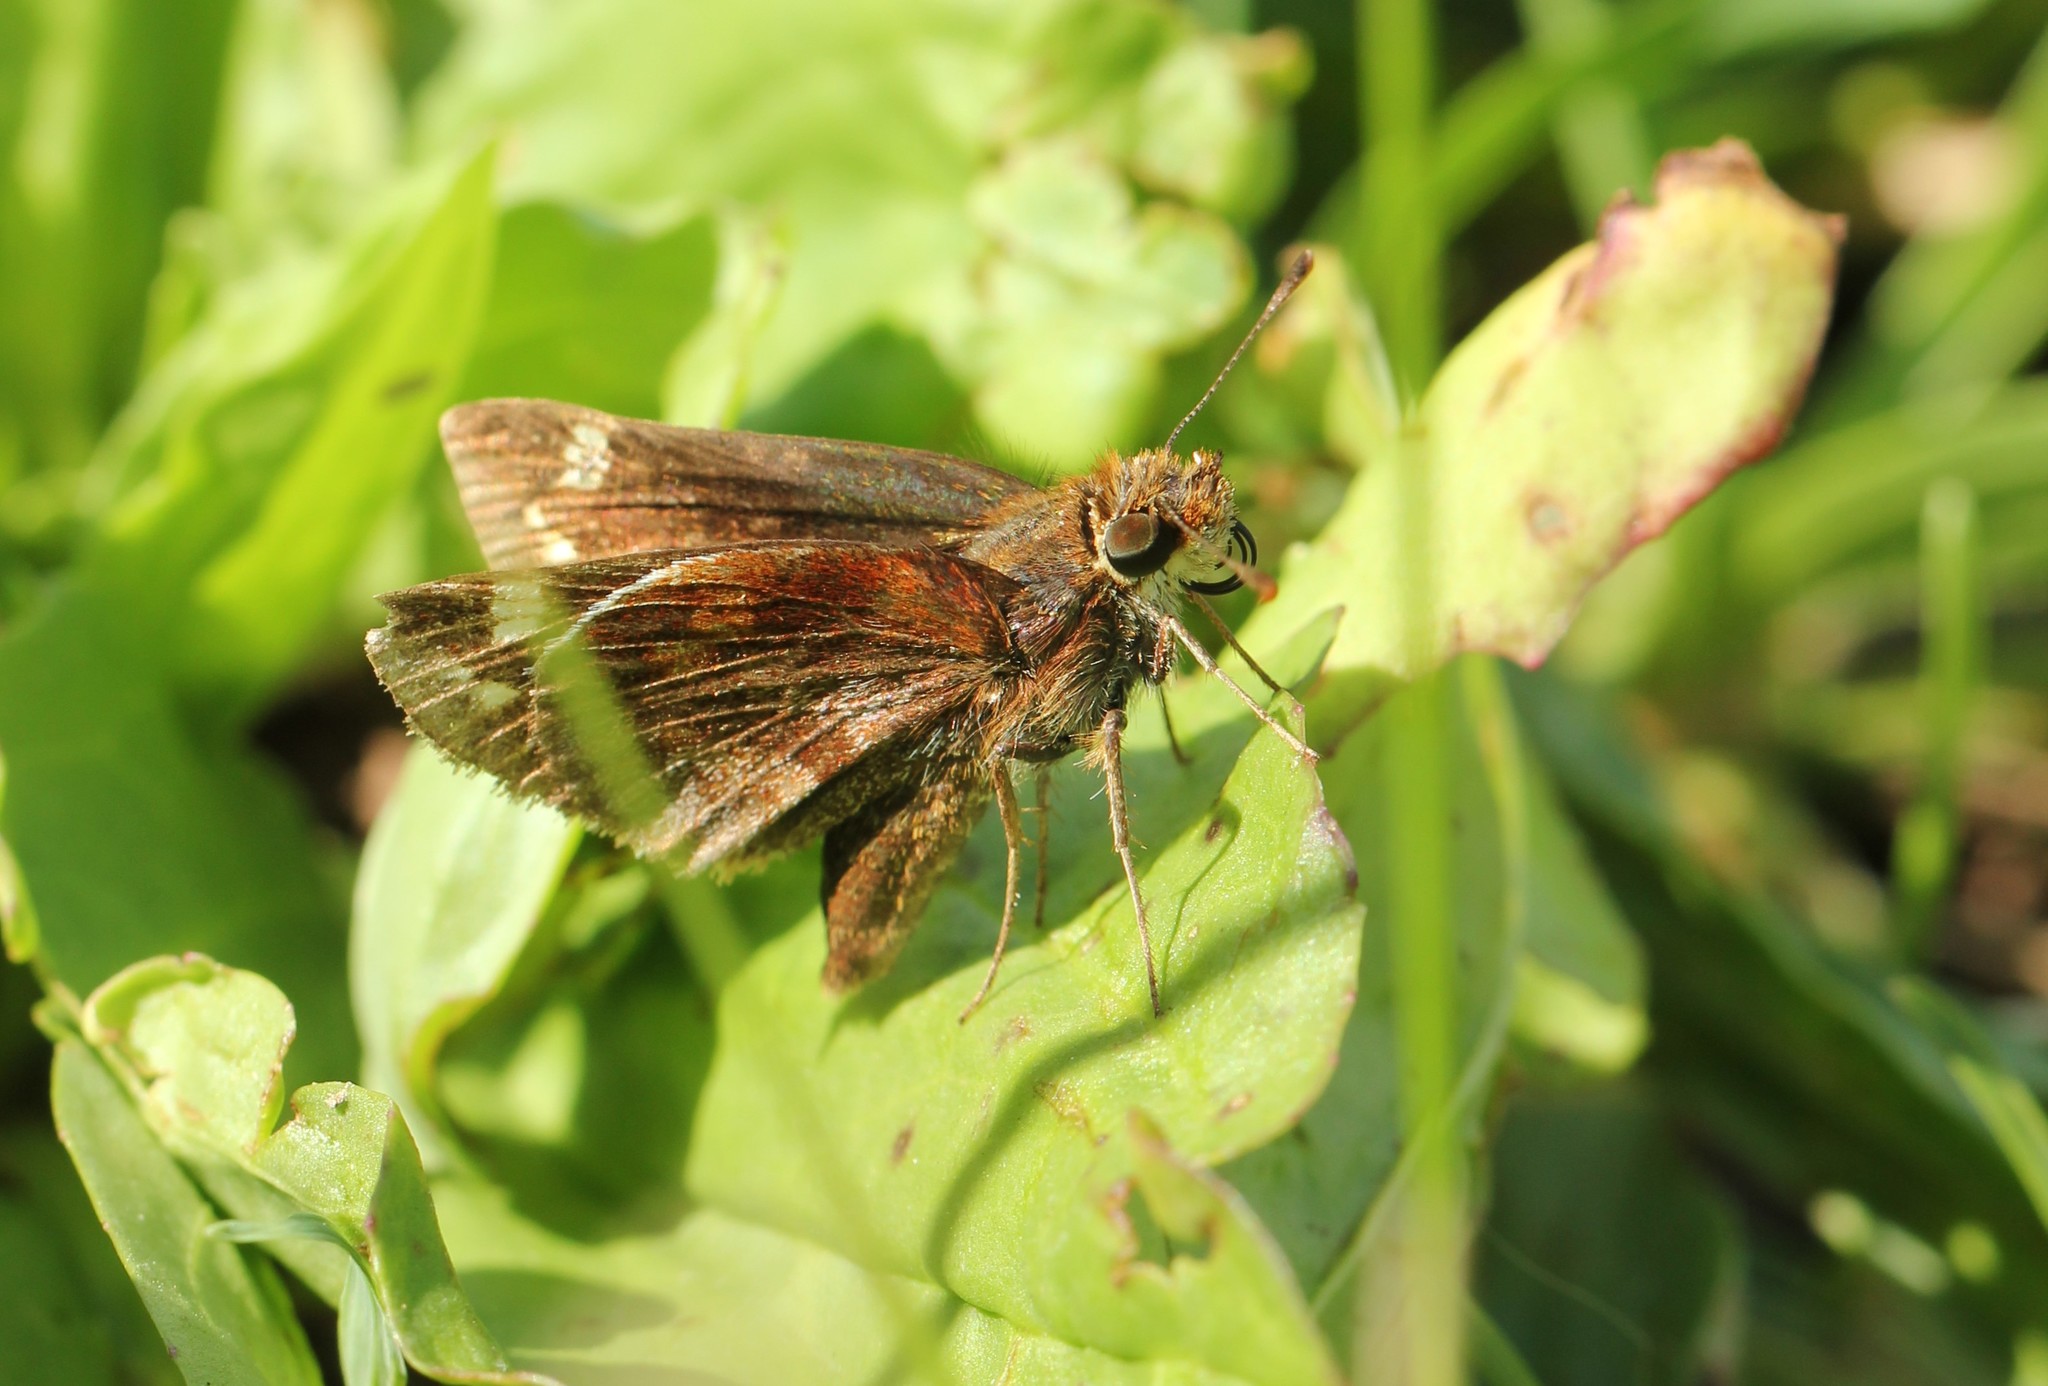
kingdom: Animalia
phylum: Arthropoda
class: Insecta
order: Lepidoptera
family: Hesperiidae
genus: Lon
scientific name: Lon zabulon
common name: Zabulon skipper
